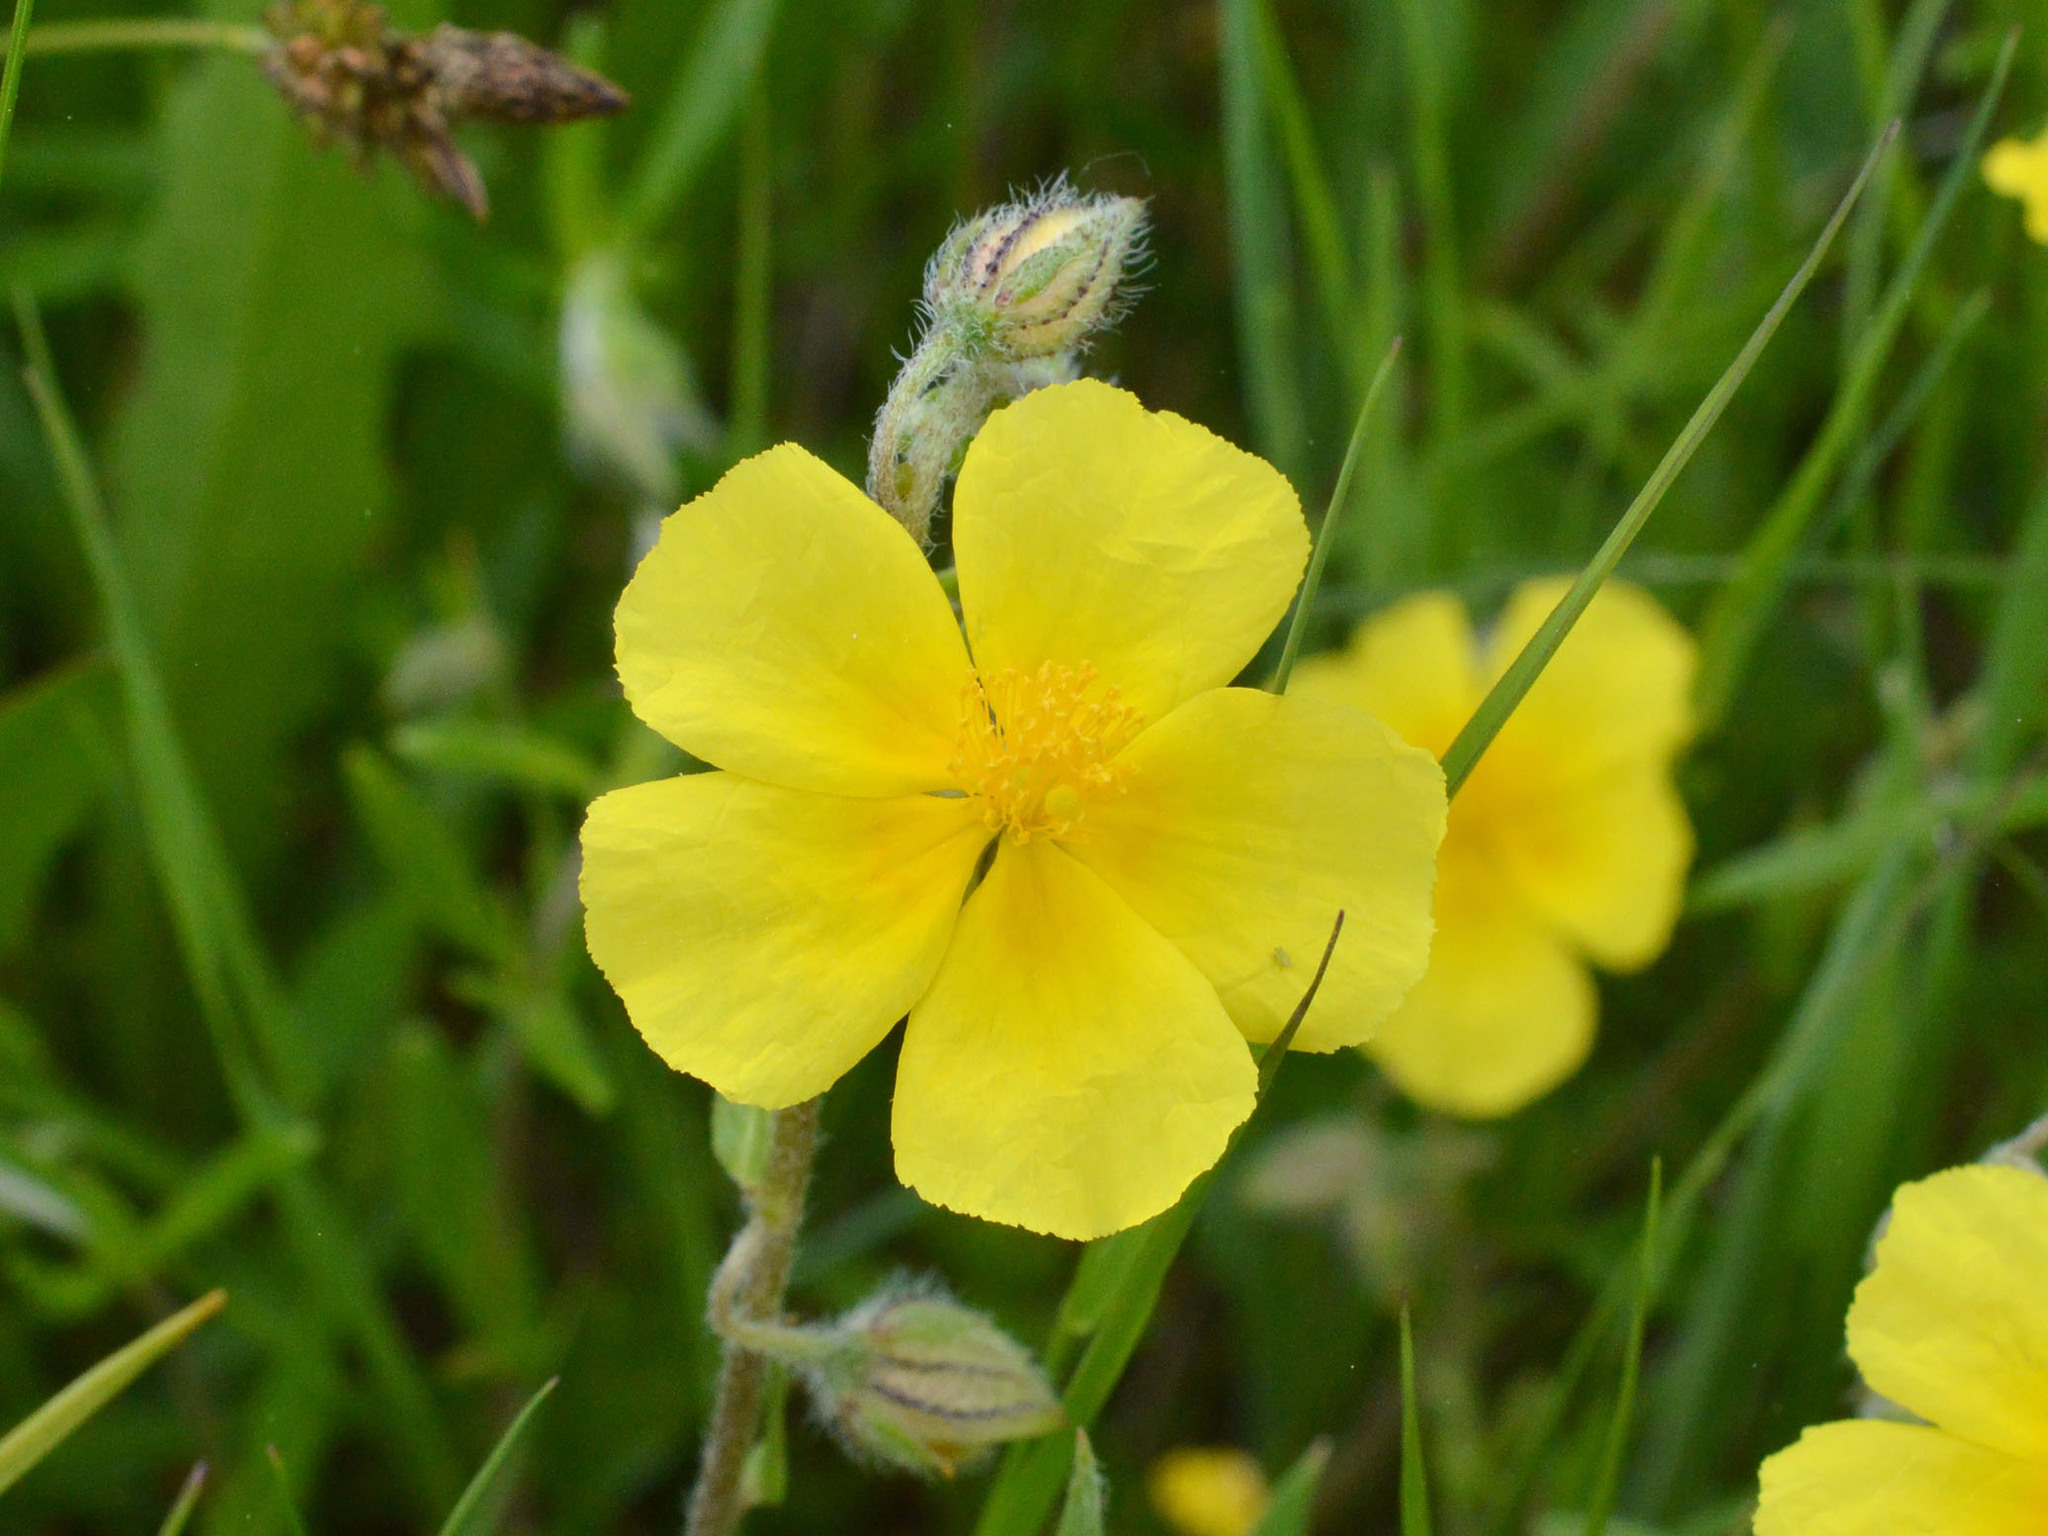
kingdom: Plantae
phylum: Tracheophyta
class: Magnoliopsida
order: Malvales
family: Cistaceae
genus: Helianthemum
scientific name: Helianthemum nummularium
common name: Common rock-rose
